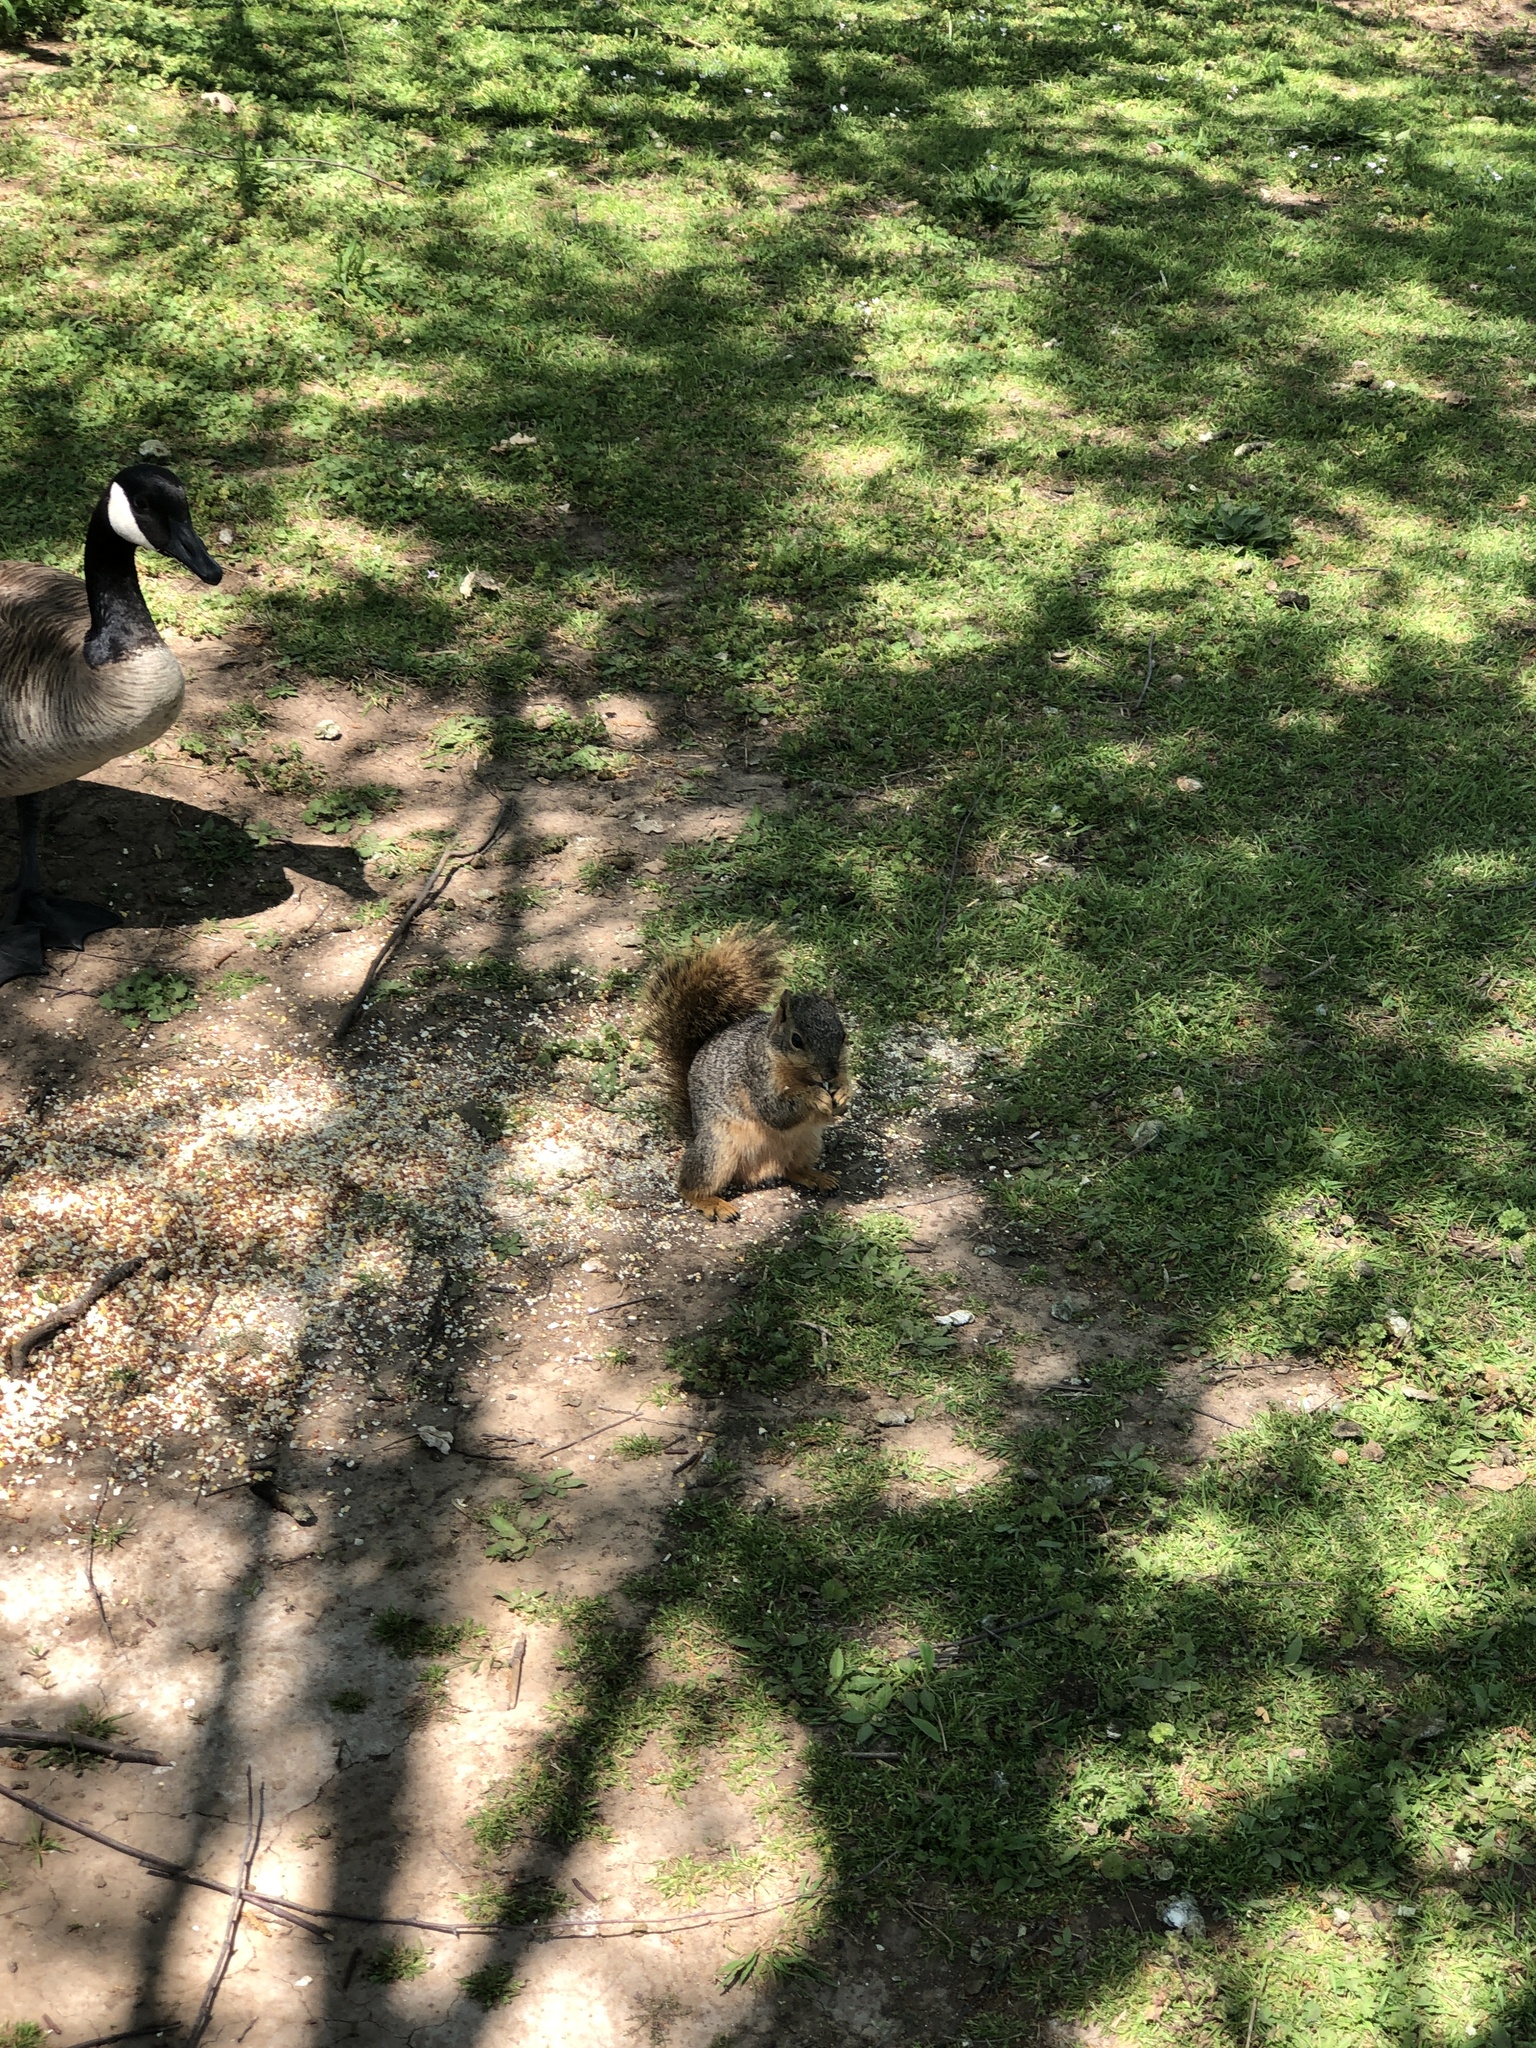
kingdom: Animalia
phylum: Chordata
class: Mammalia
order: Rodentia
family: Sciuridae
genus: Sciurus
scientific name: Sciurus niger
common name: Fox squirrel
